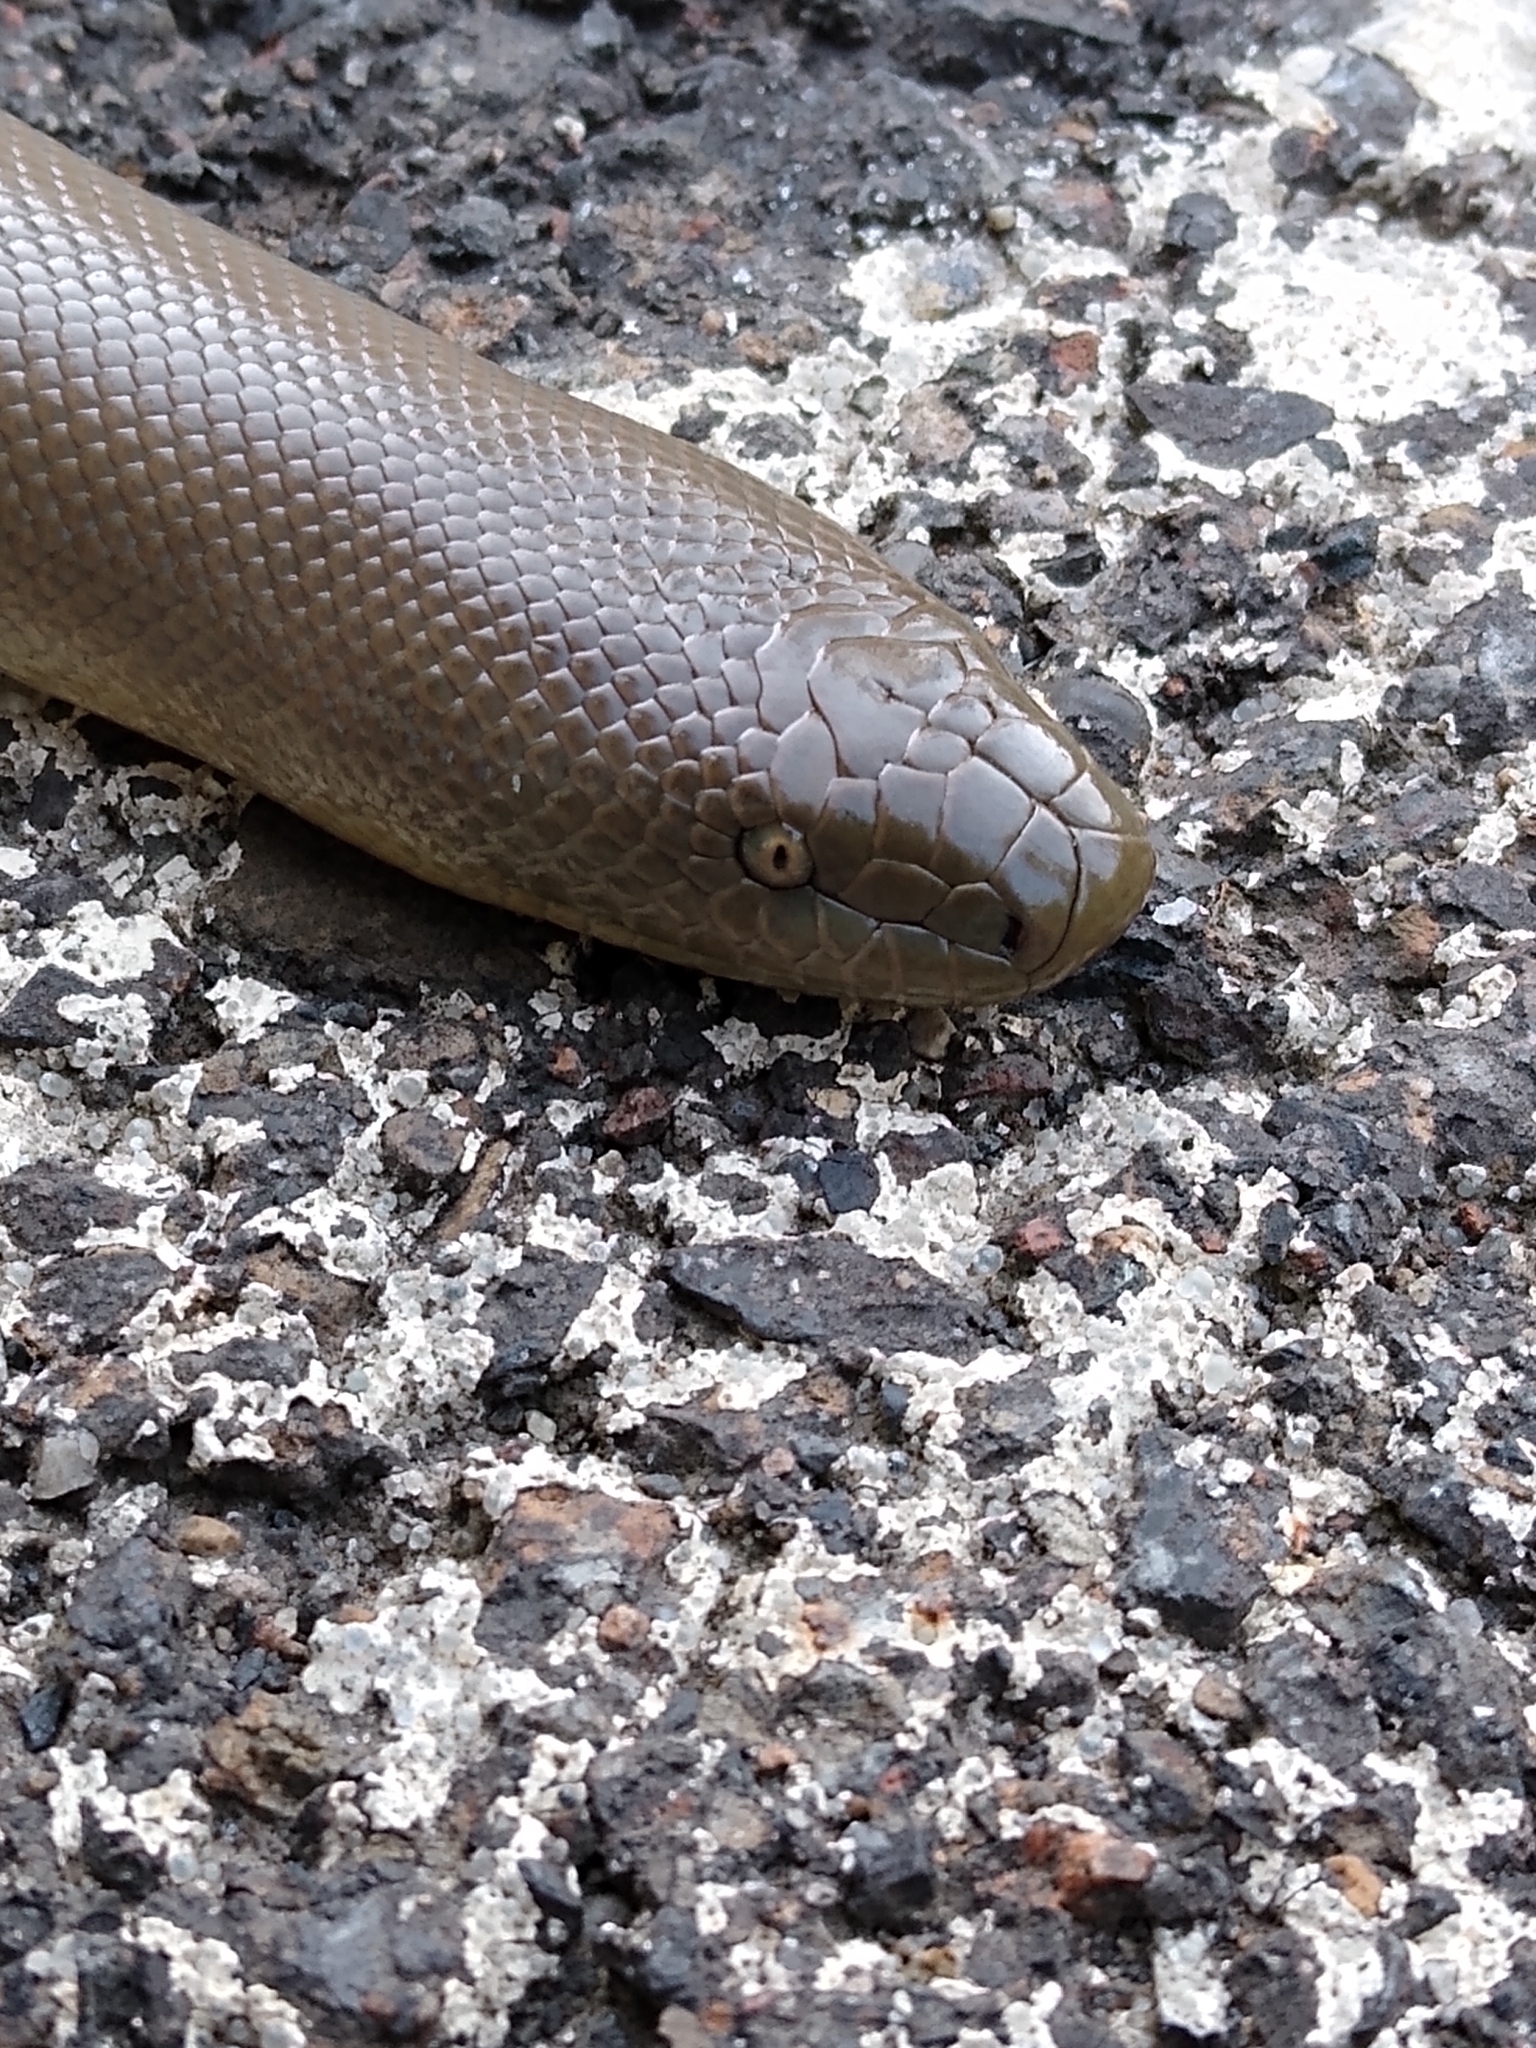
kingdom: Animalia
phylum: Chordata
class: Squamata
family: Boidae
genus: Charina
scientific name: Charina bottae
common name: Northern rubber boa
